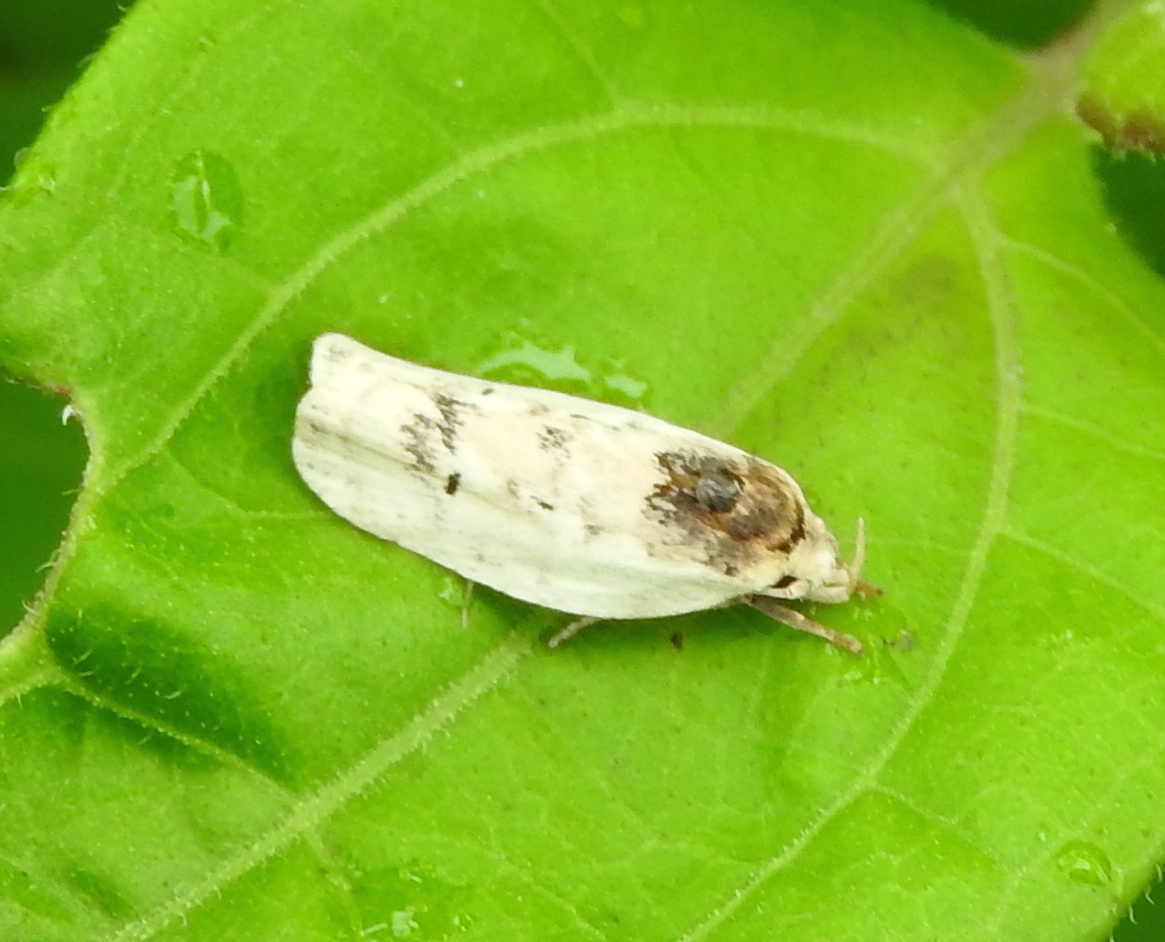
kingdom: Animalia
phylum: Arthropoda
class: Insecta
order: Lepidoptera
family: Depressariidae
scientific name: Depressariidae
